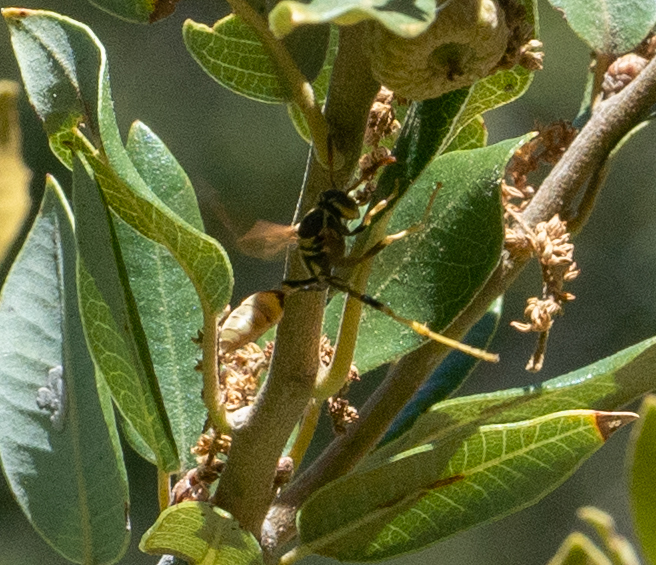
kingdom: Animalia
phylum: Arthropoda
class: Insecta
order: Hymenoptera
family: Vespidae
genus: Mischocyttarus
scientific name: Mischocyttarus flavitarsis
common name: Wasp
